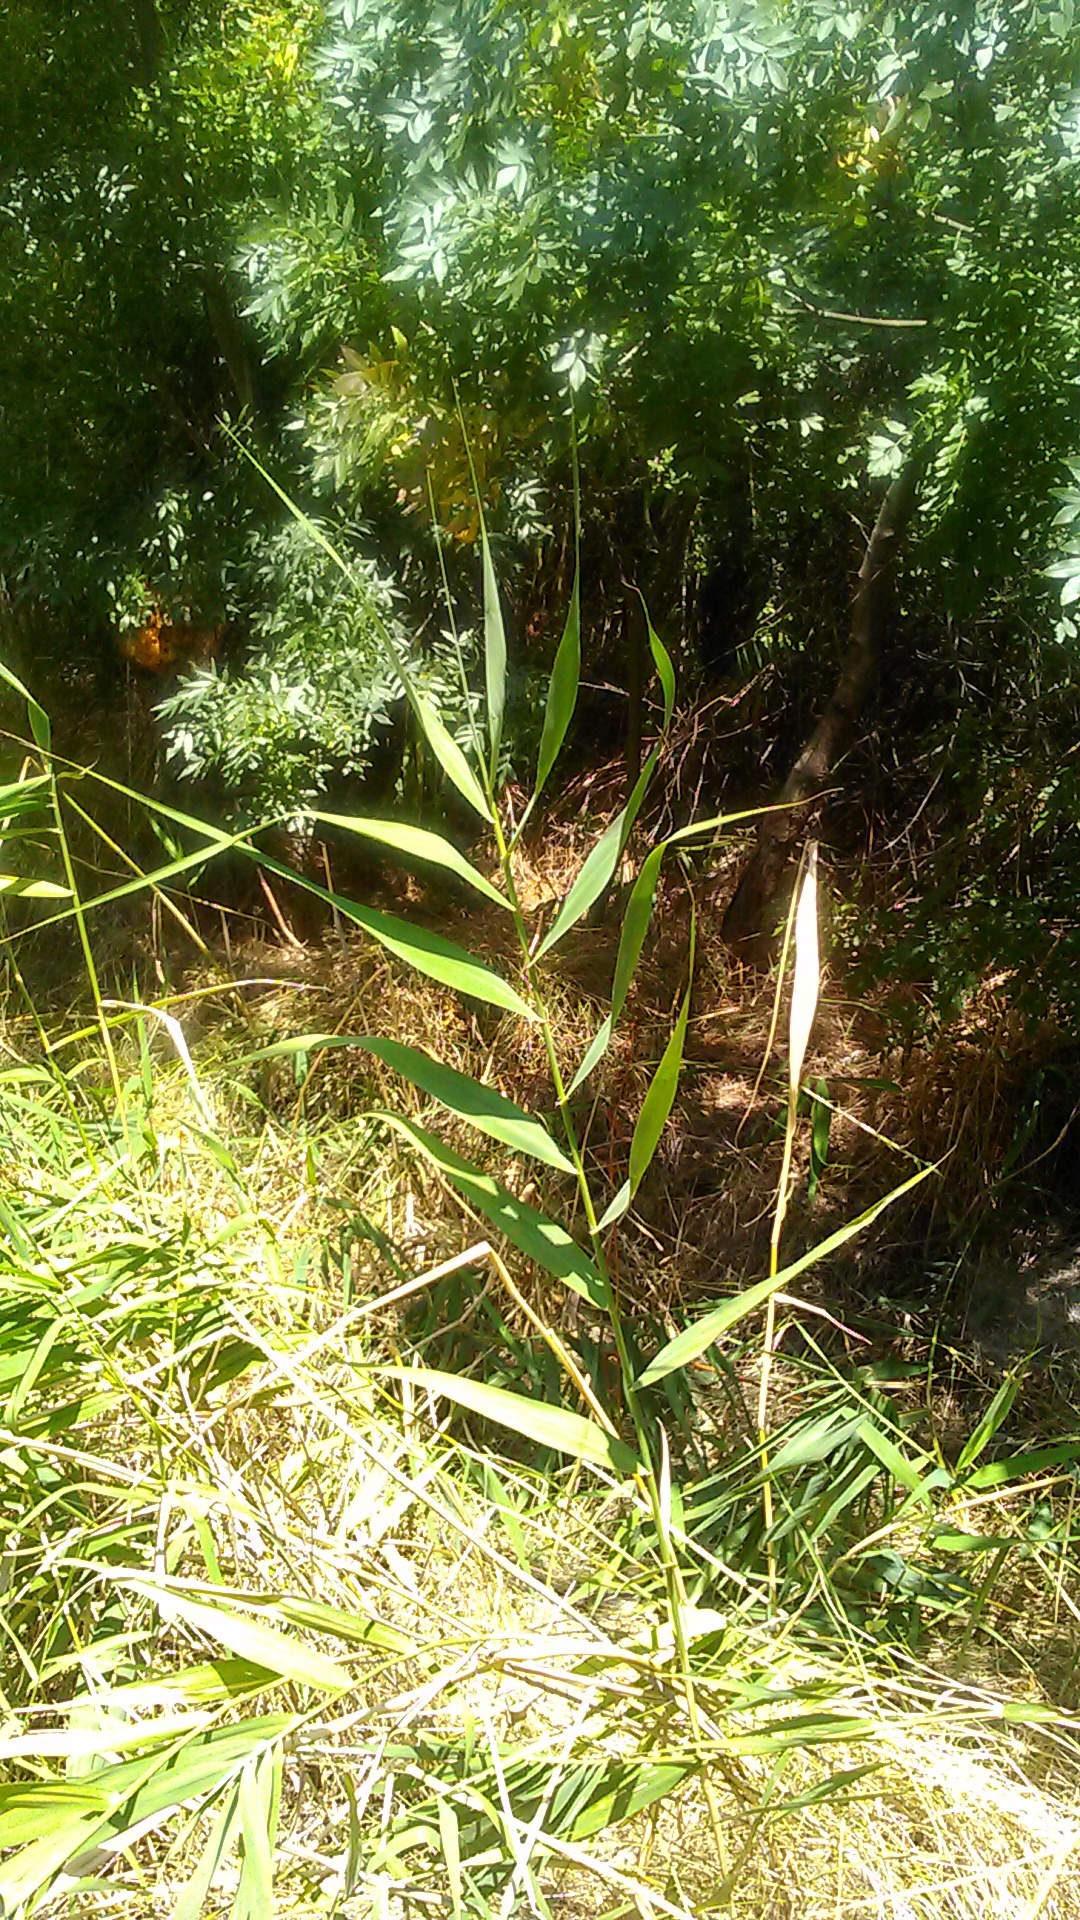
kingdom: Plantae
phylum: Tracheophyta
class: Liliopsida
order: Poales
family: Poaceae
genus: Phragmites
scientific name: Phragmites australis
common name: Common reed
